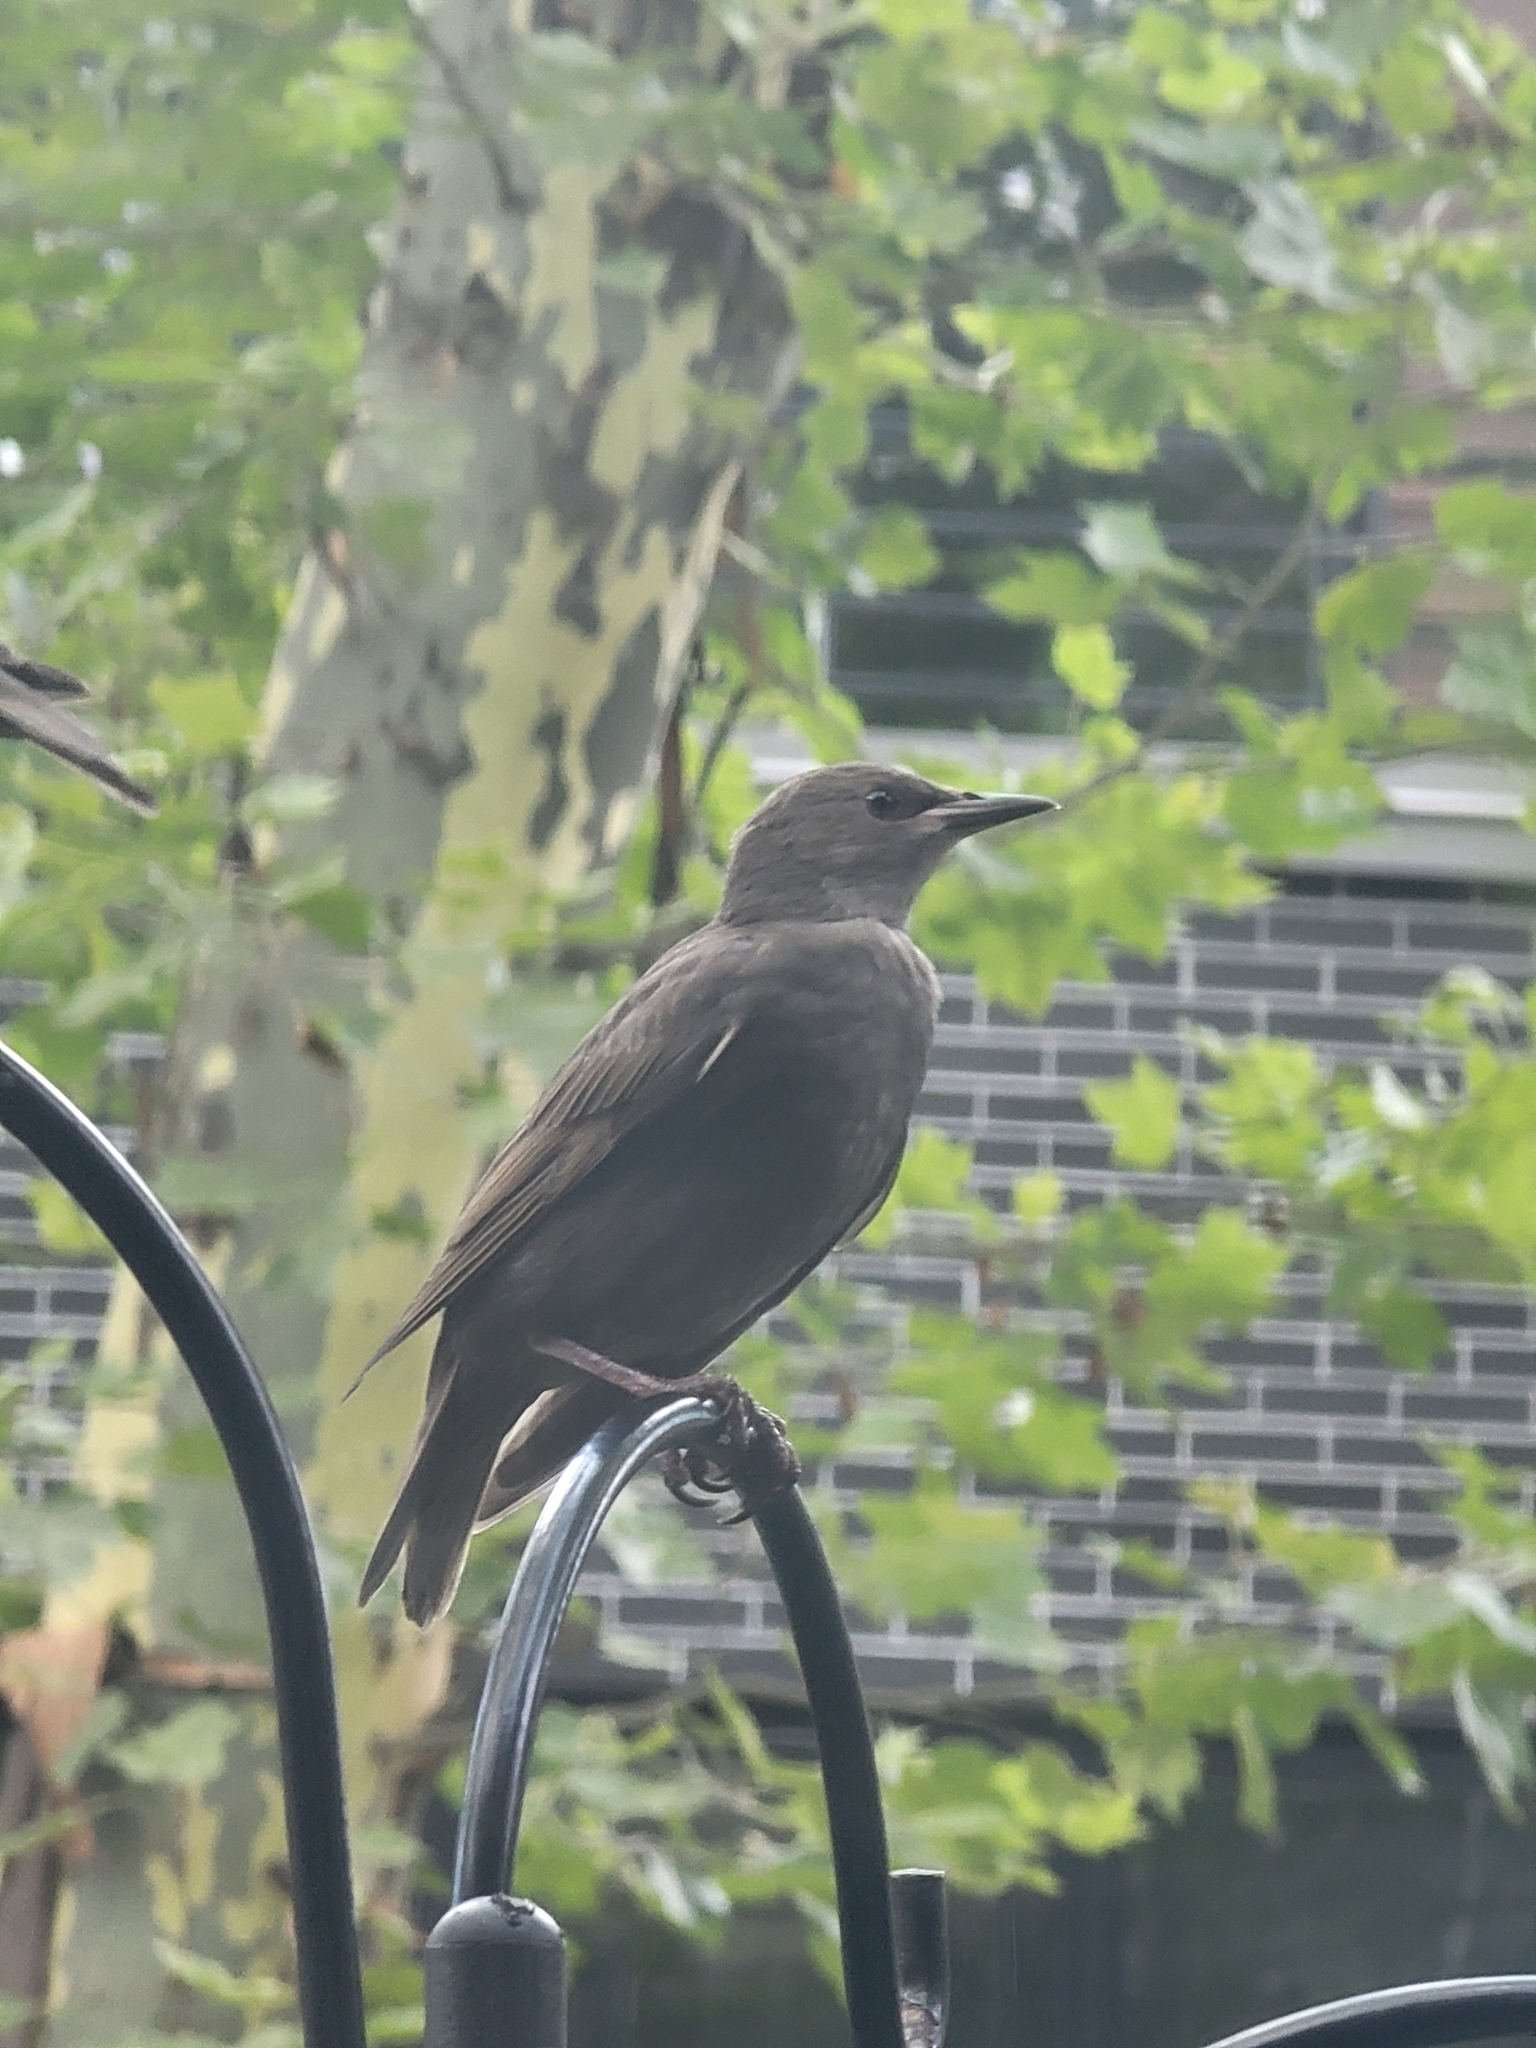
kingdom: Animalia
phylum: Chordata
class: Aves
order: Passeriformes
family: Sturnidae
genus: Sturnus
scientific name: Sturnus vulgaris
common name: Common starling
